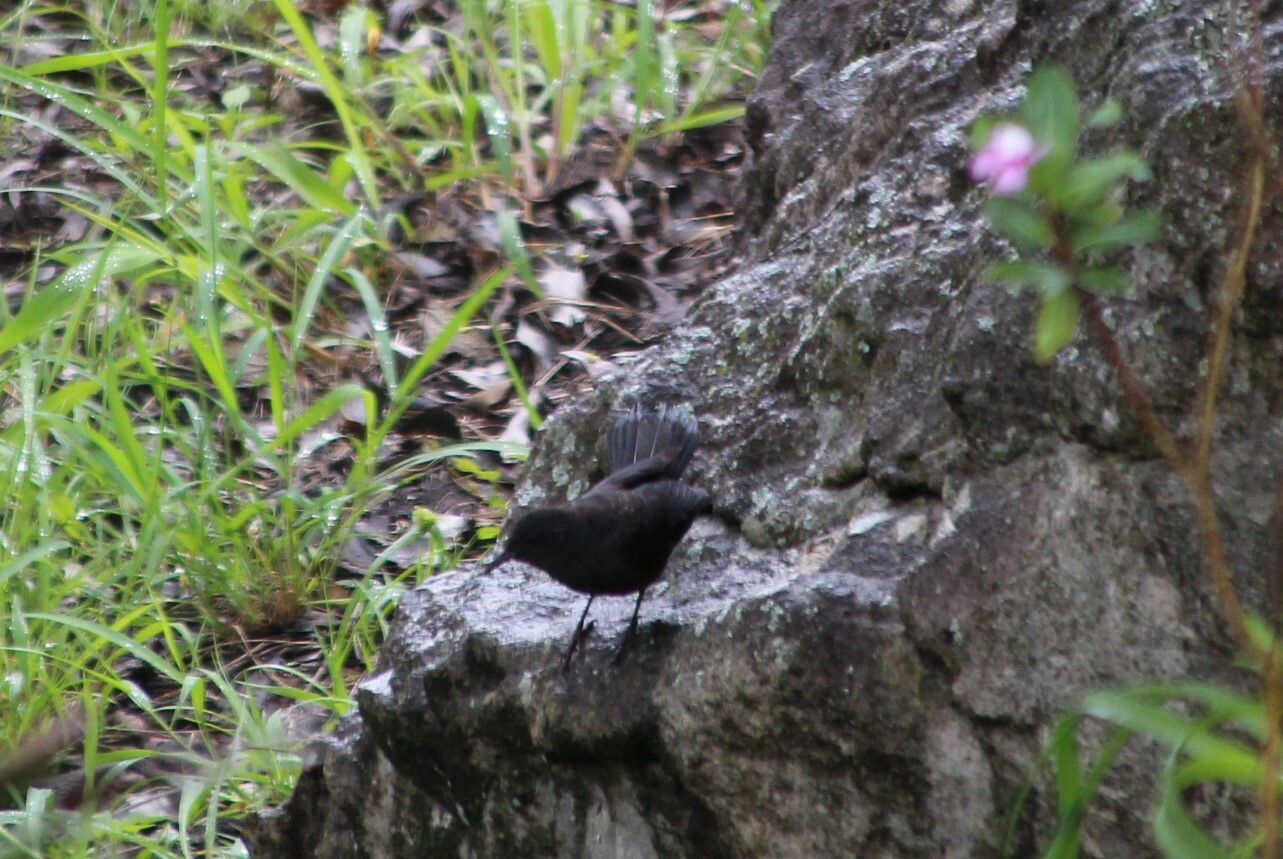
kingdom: Animalia
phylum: Chordata
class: Aves
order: Passeriformes
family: Muscicapidae
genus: Thamnolaea
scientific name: Thamnolaea cinnamomeiventris
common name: Mocking cliff chat
